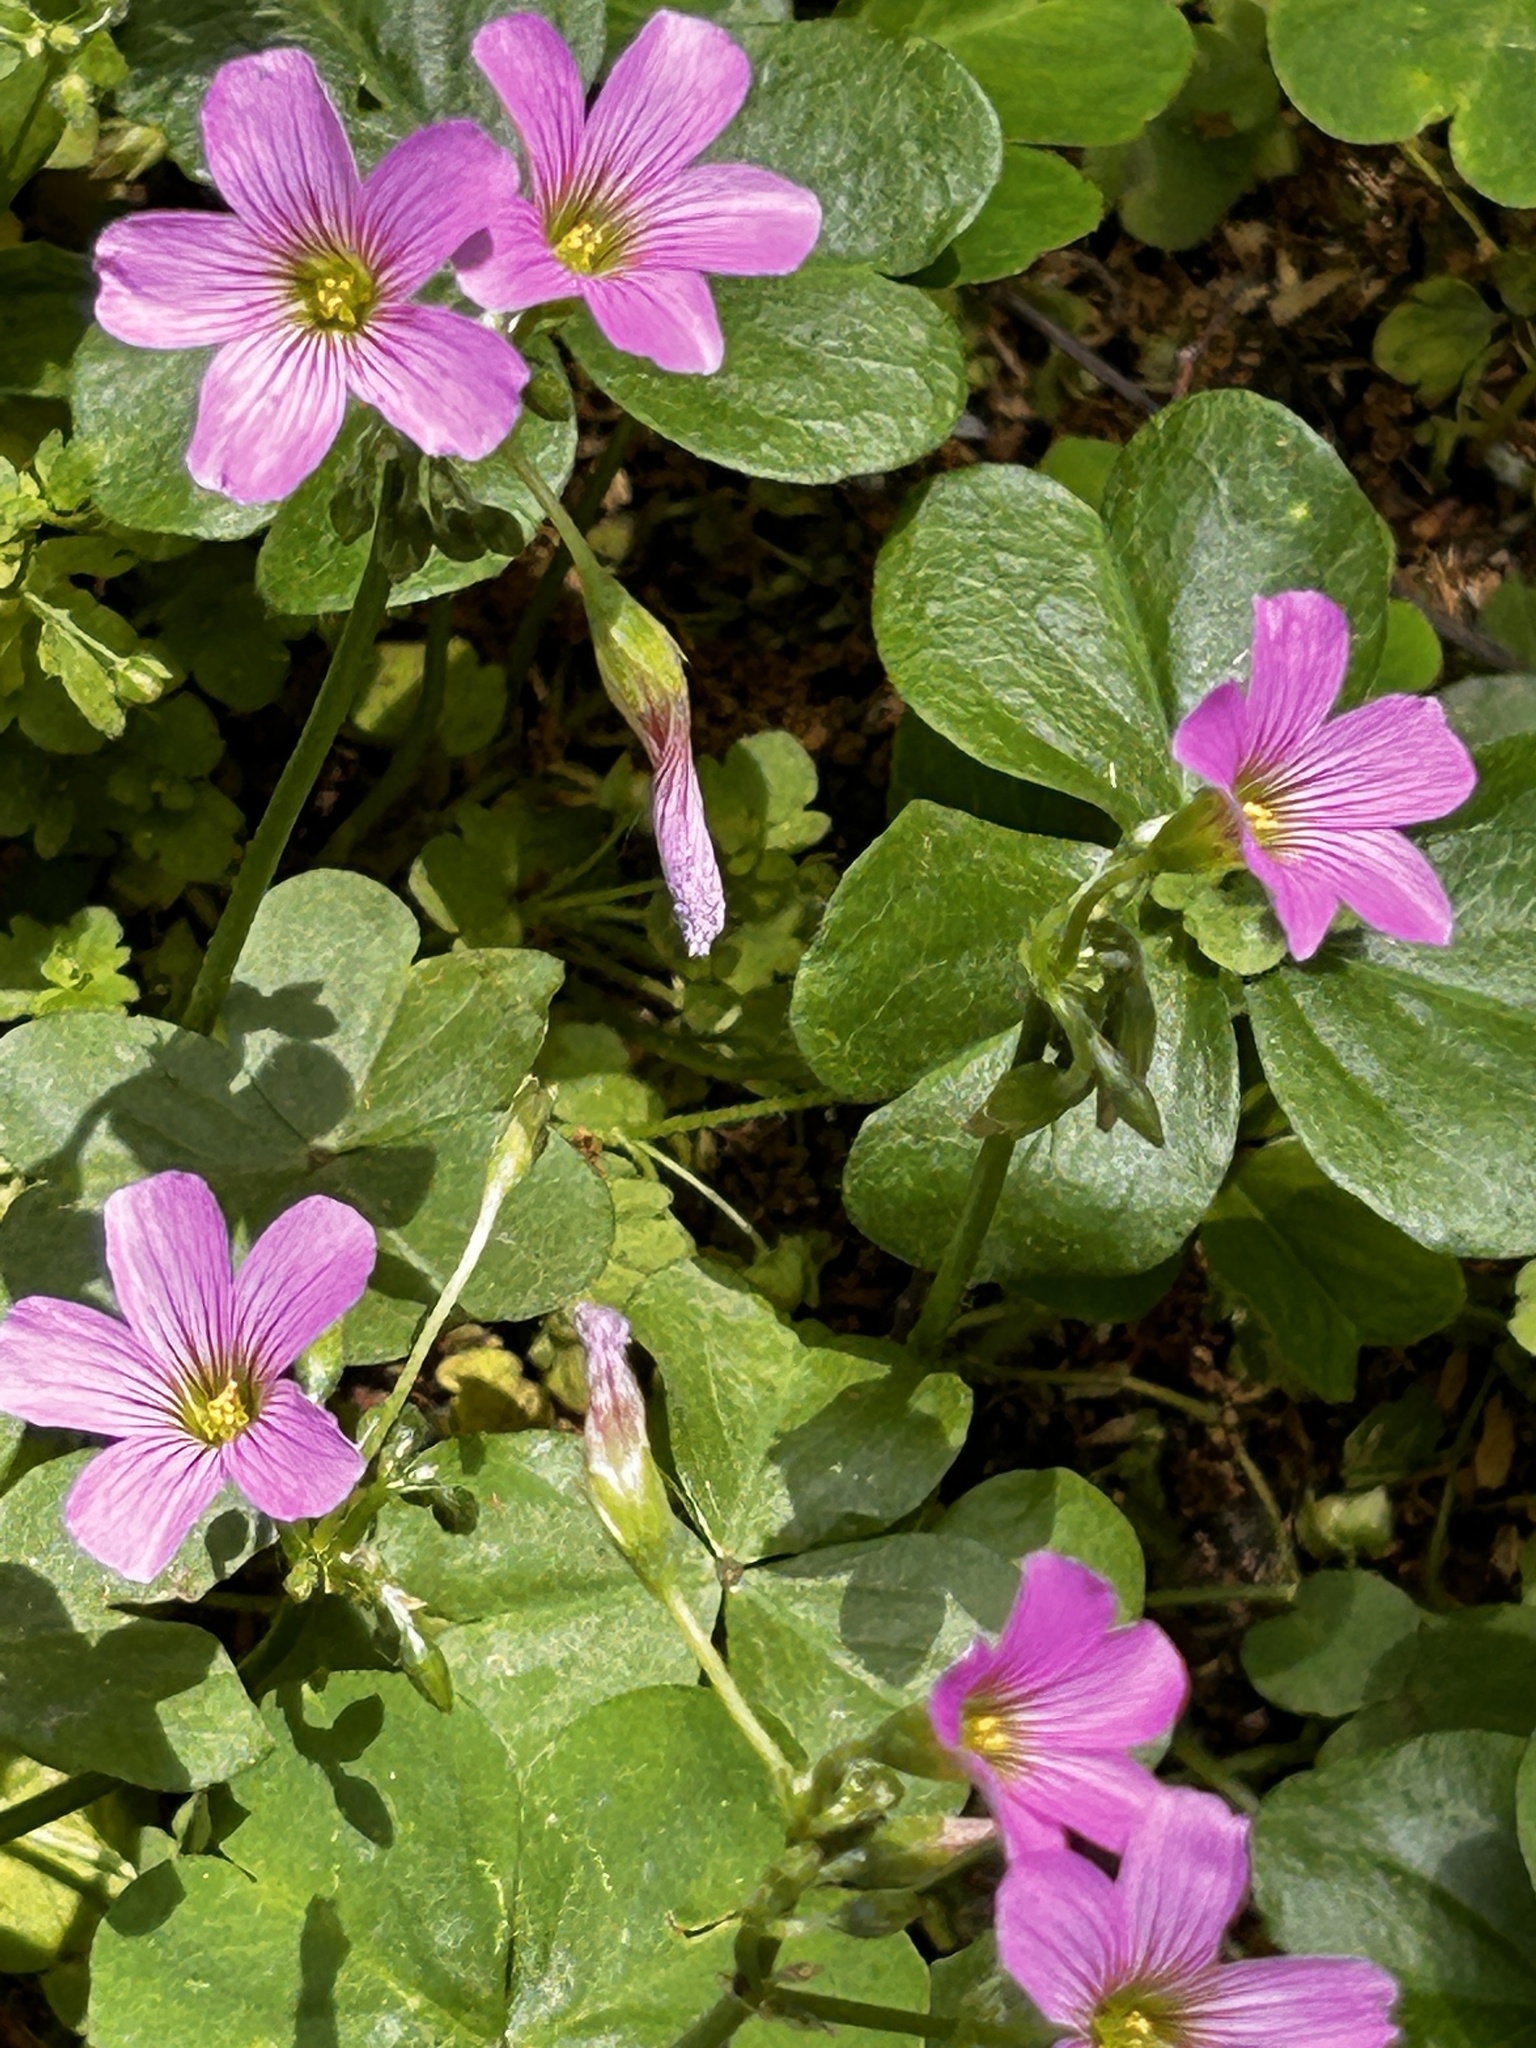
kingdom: Plantae
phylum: Tracheophyta
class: Magnoliopsida
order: Oxalidales
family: Oxalidaceae
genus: Oxalis
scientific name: Oxalis debilis
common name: Large-flowered pink-sorrel
